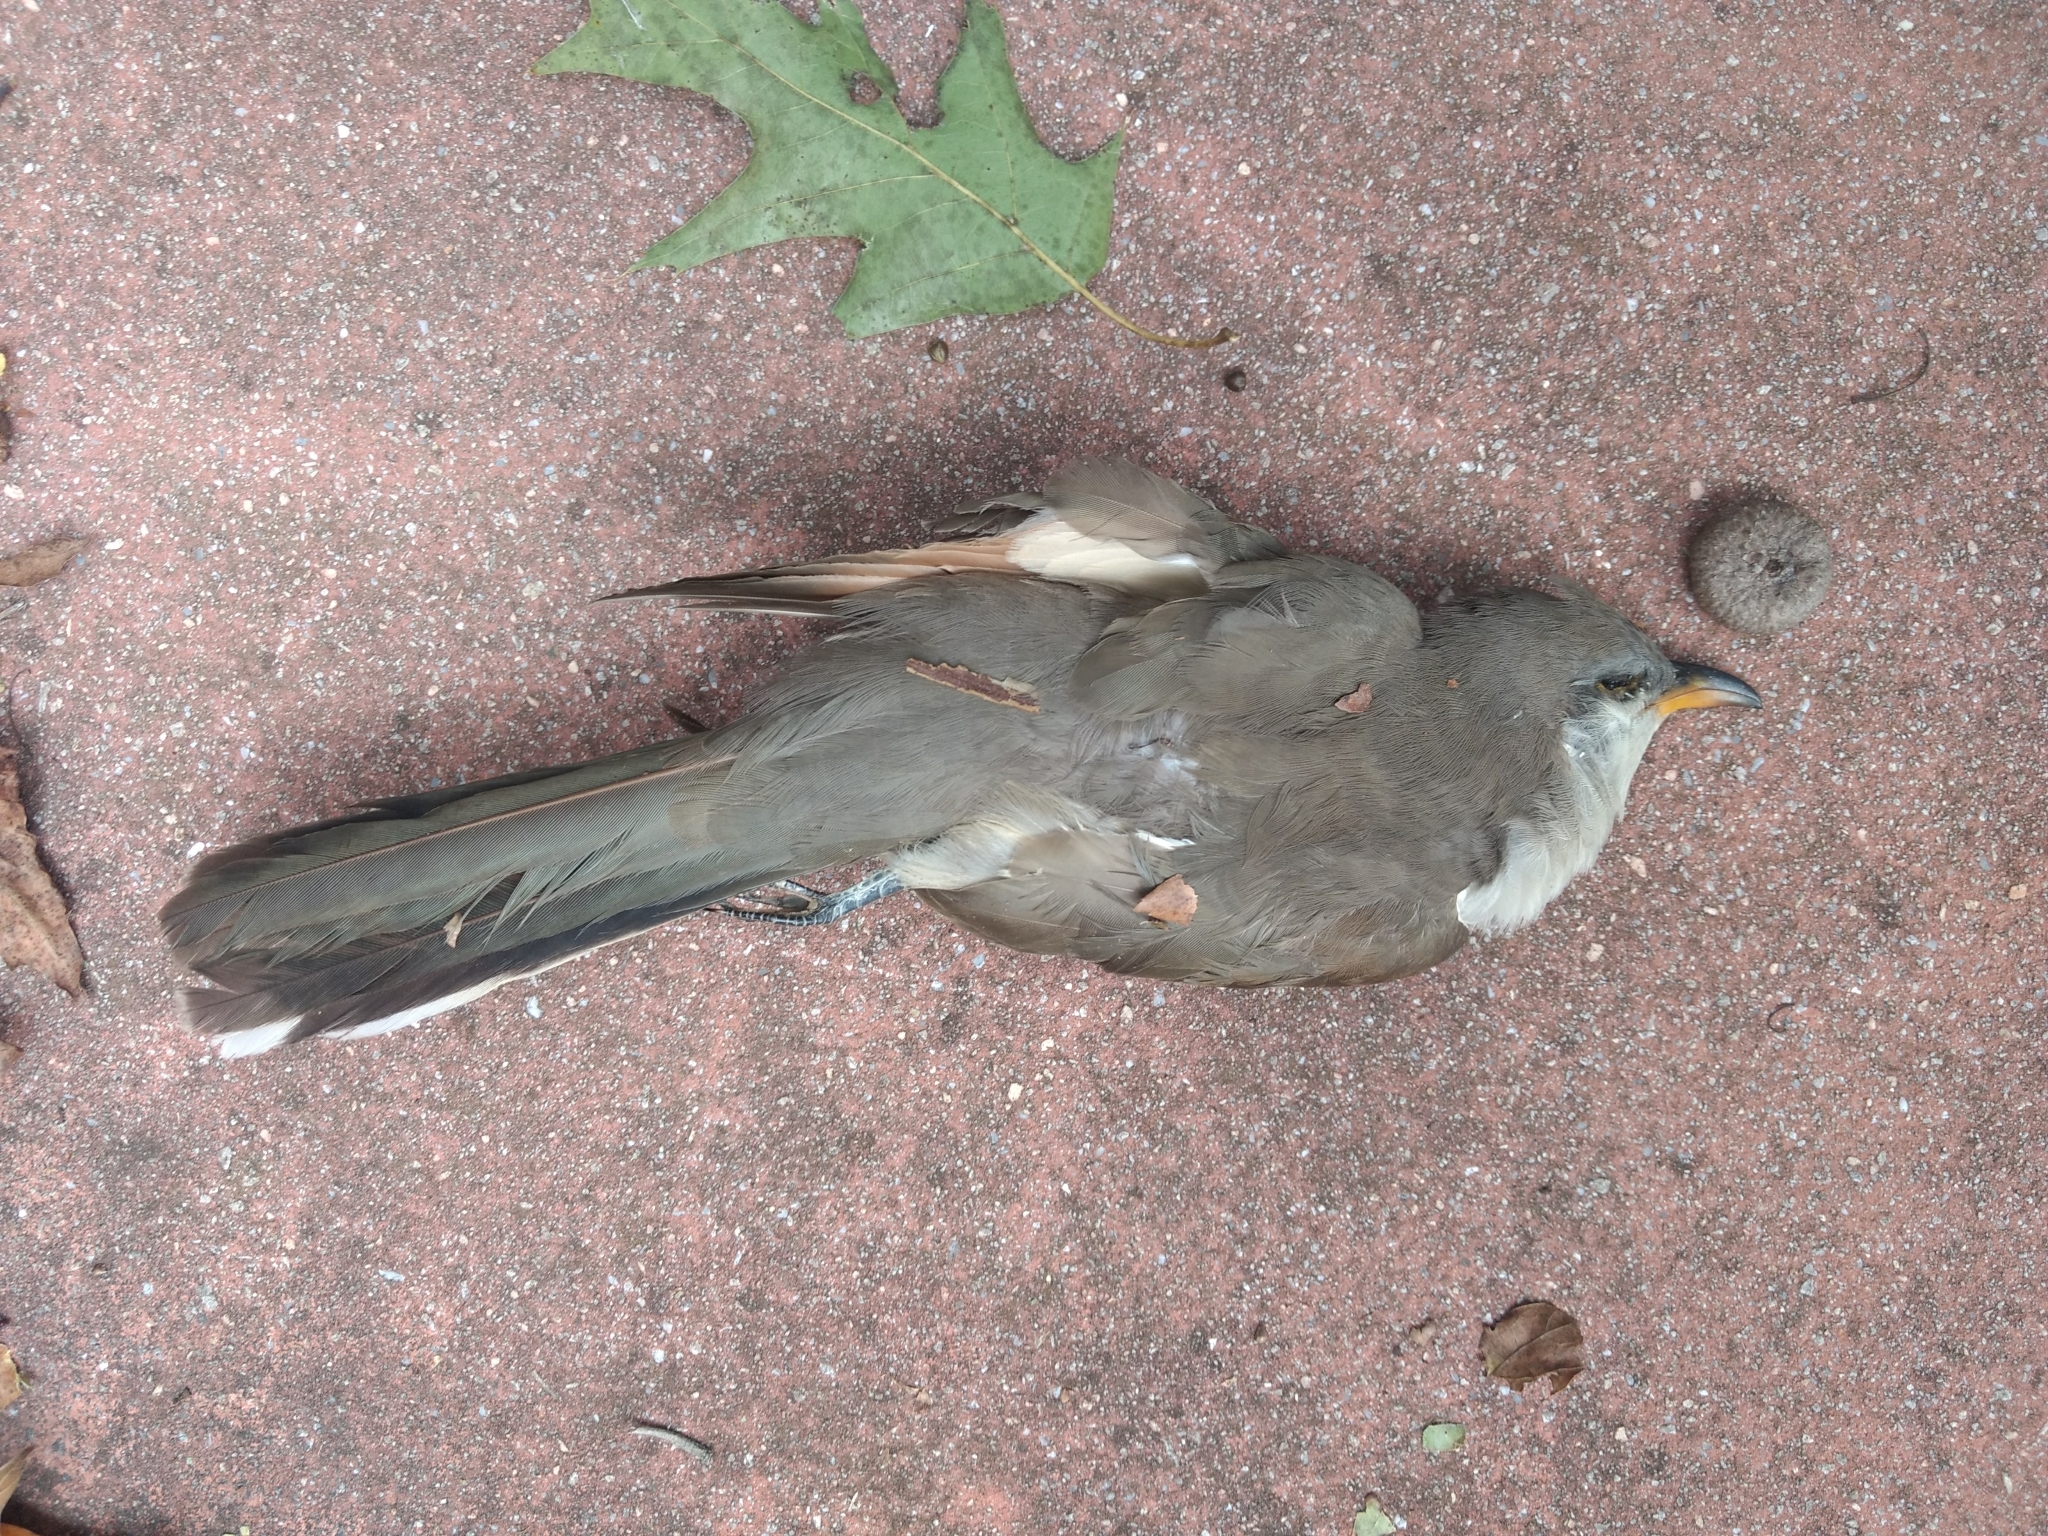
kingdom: Animalia
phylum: Chordata
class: Aves
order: Cuculiformes
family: Cuculidae
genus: Coccyzus
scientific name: Coccyzus americanus
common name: Yellow-billed cuckoo
